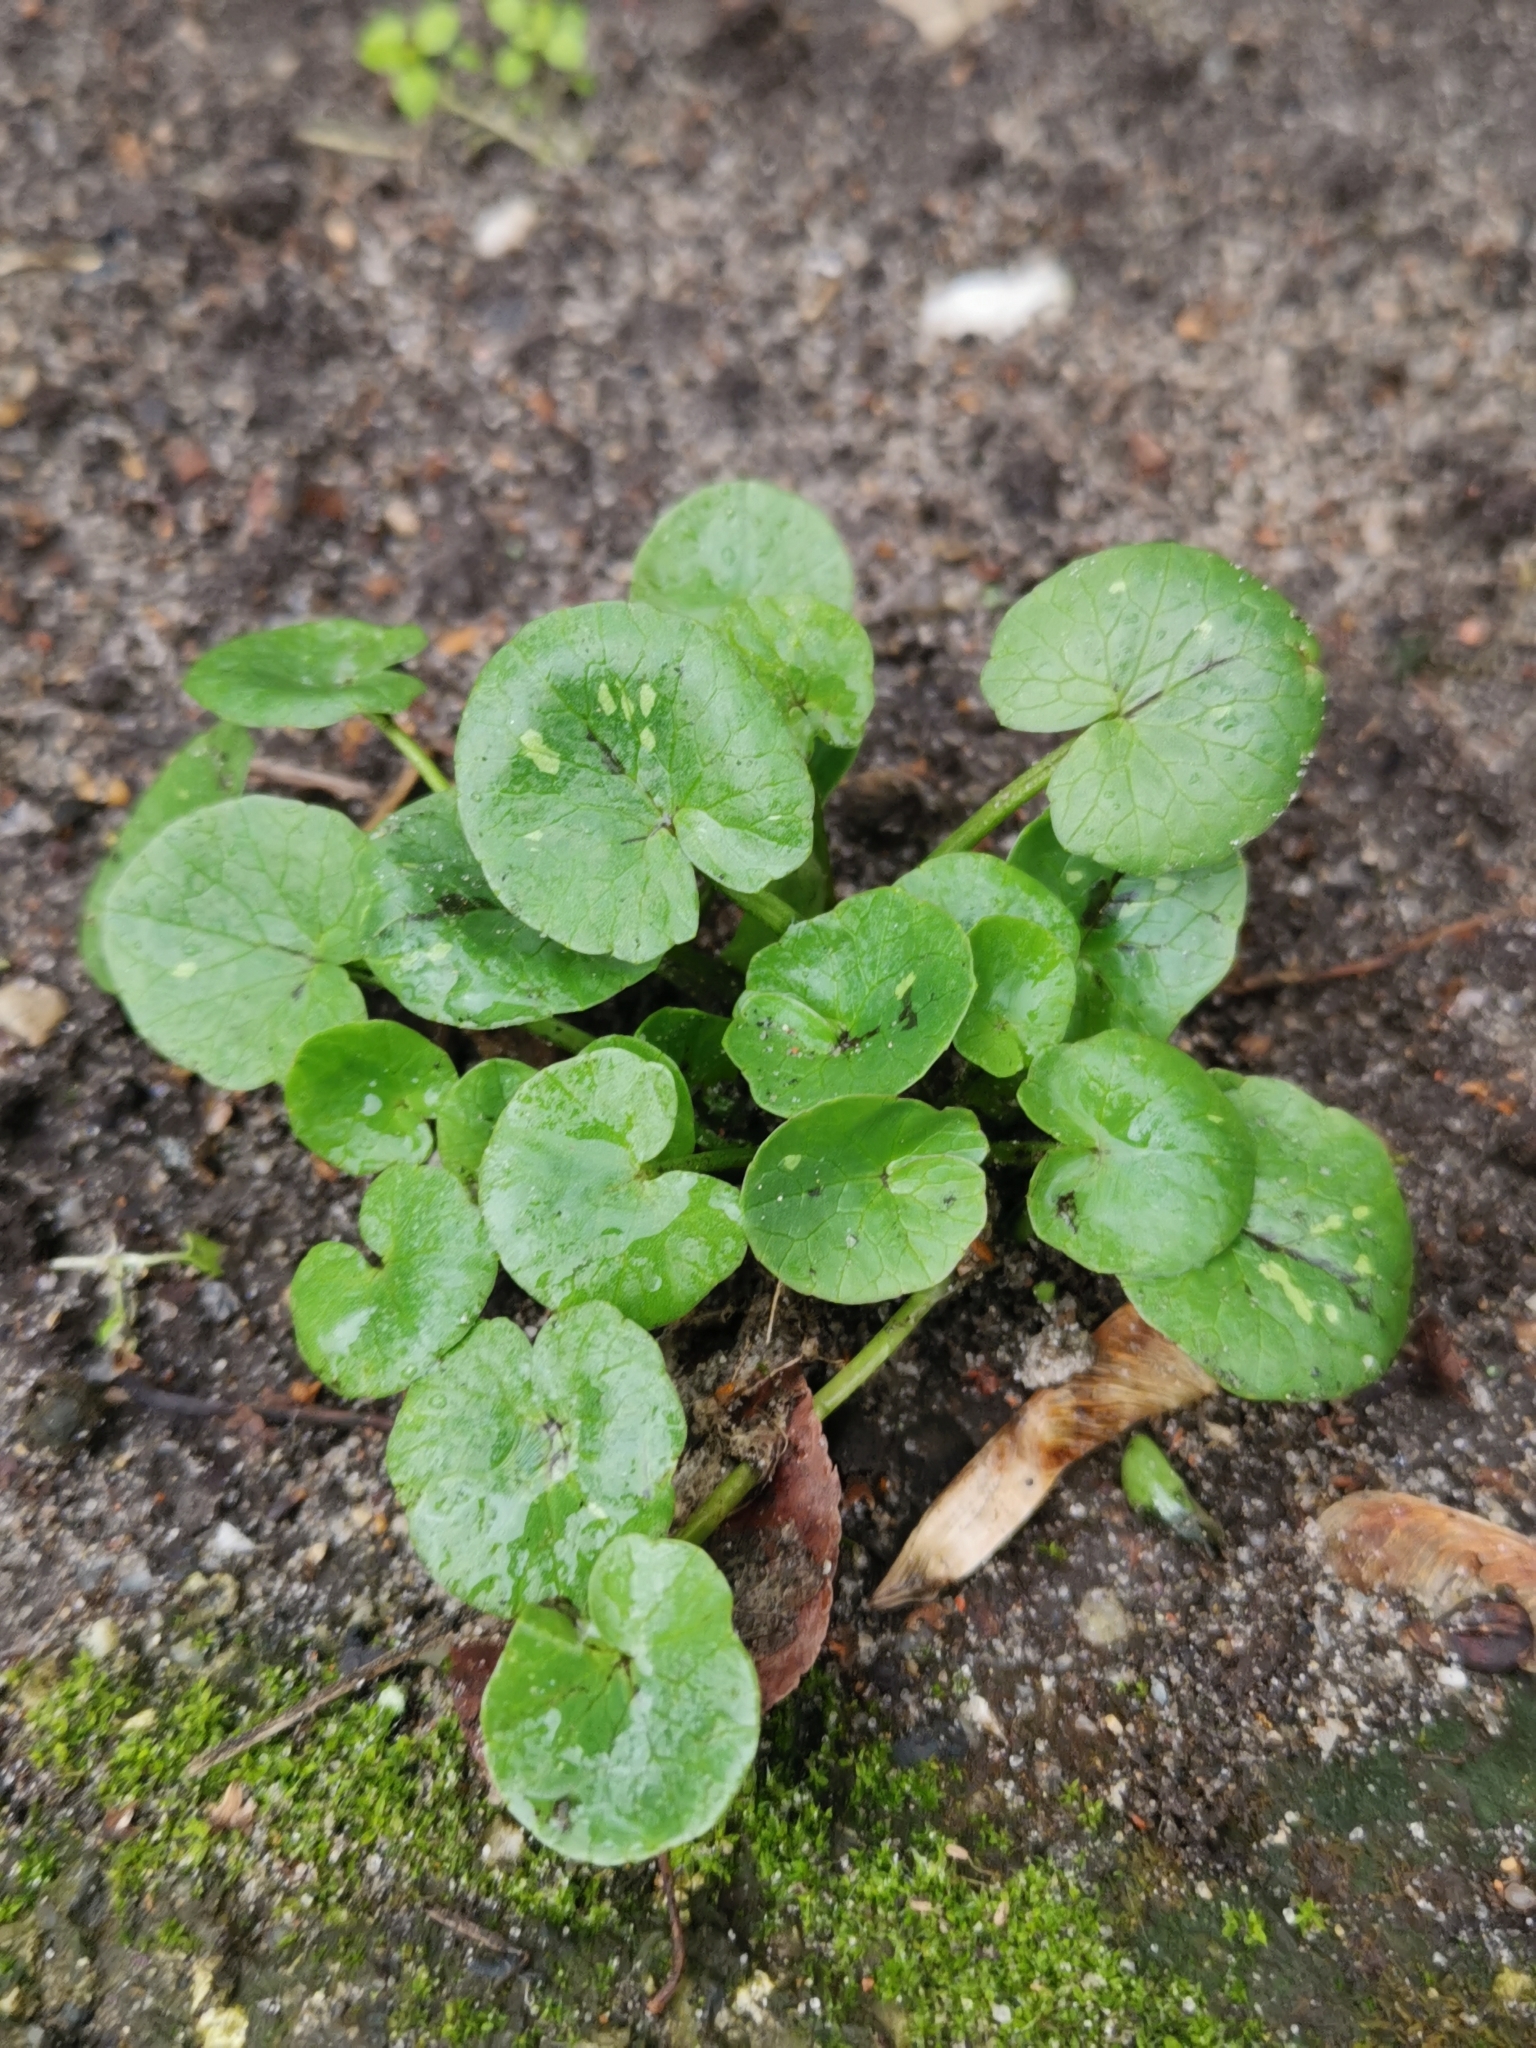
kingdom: Plantae
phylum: Tracheophyta
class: Magnoliopsida
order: Ranunculales
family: Ranunculaceae
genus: Ficaria
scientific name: Ficaria verna
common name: Lesser celandine
